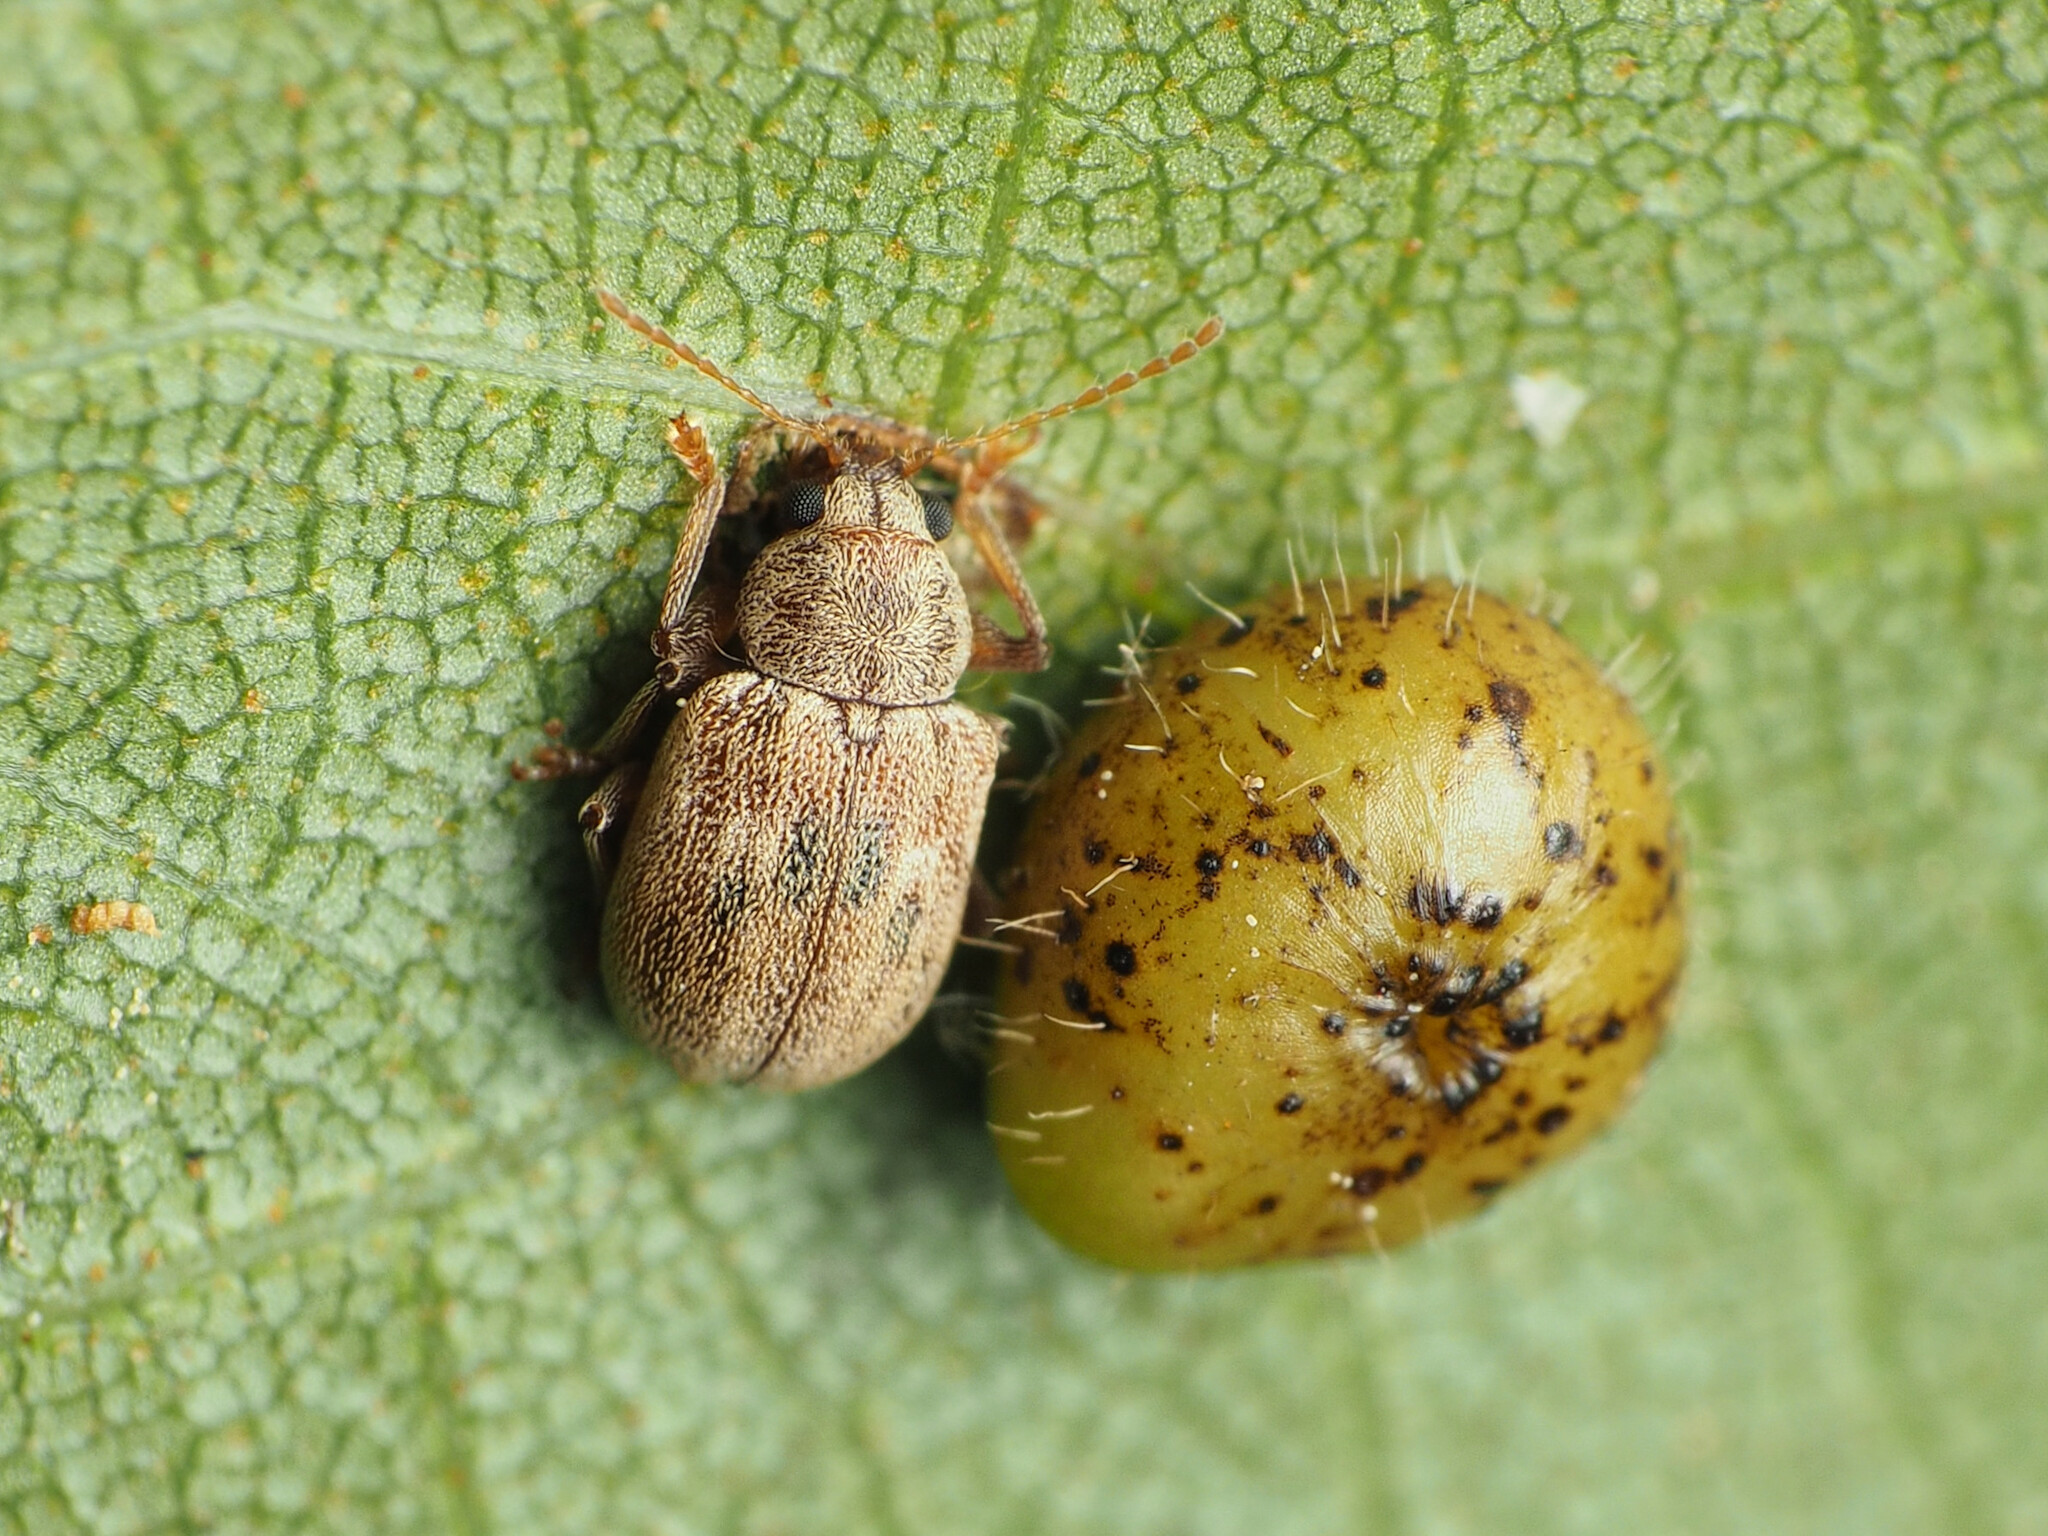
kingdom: Animalia
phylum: Arthropoda
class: Insecta
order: Coleoptera
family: Chrysomelidae
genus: Demotina
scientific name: Demotina modesta
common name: Leaf beetle
